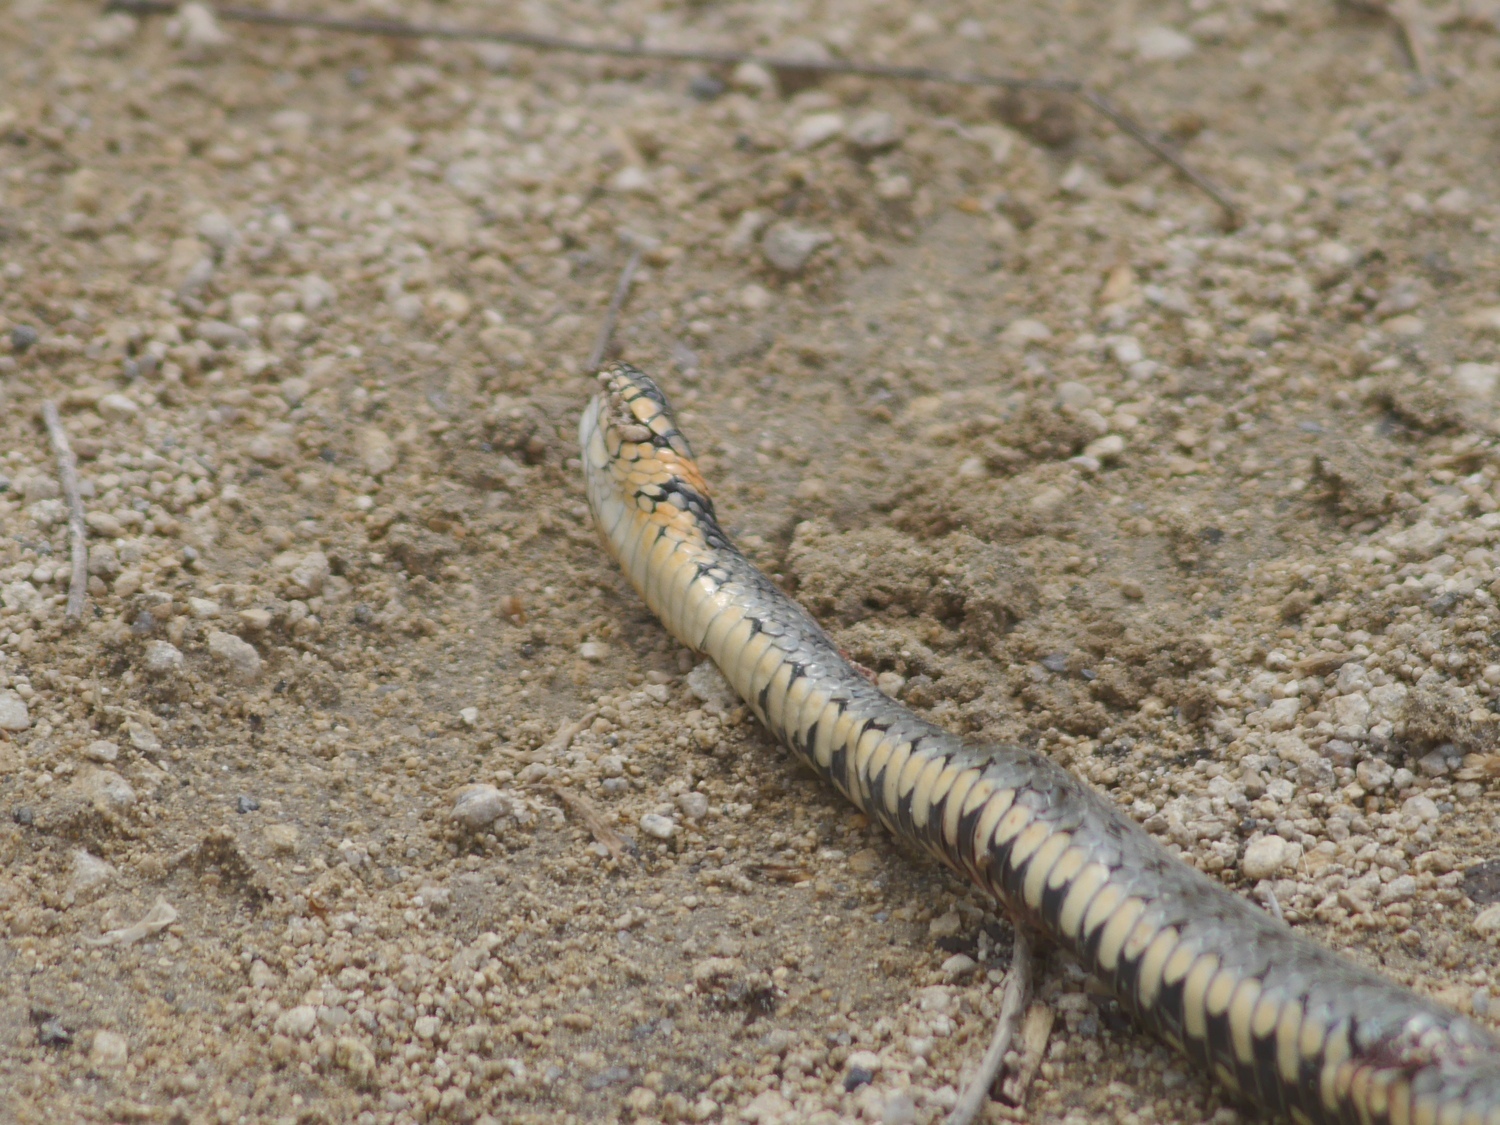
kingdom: Animalia
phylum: Chordata
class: Squamata
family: Colubridae
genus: Natrix
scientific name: Natrix natrix
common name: Grass snake
